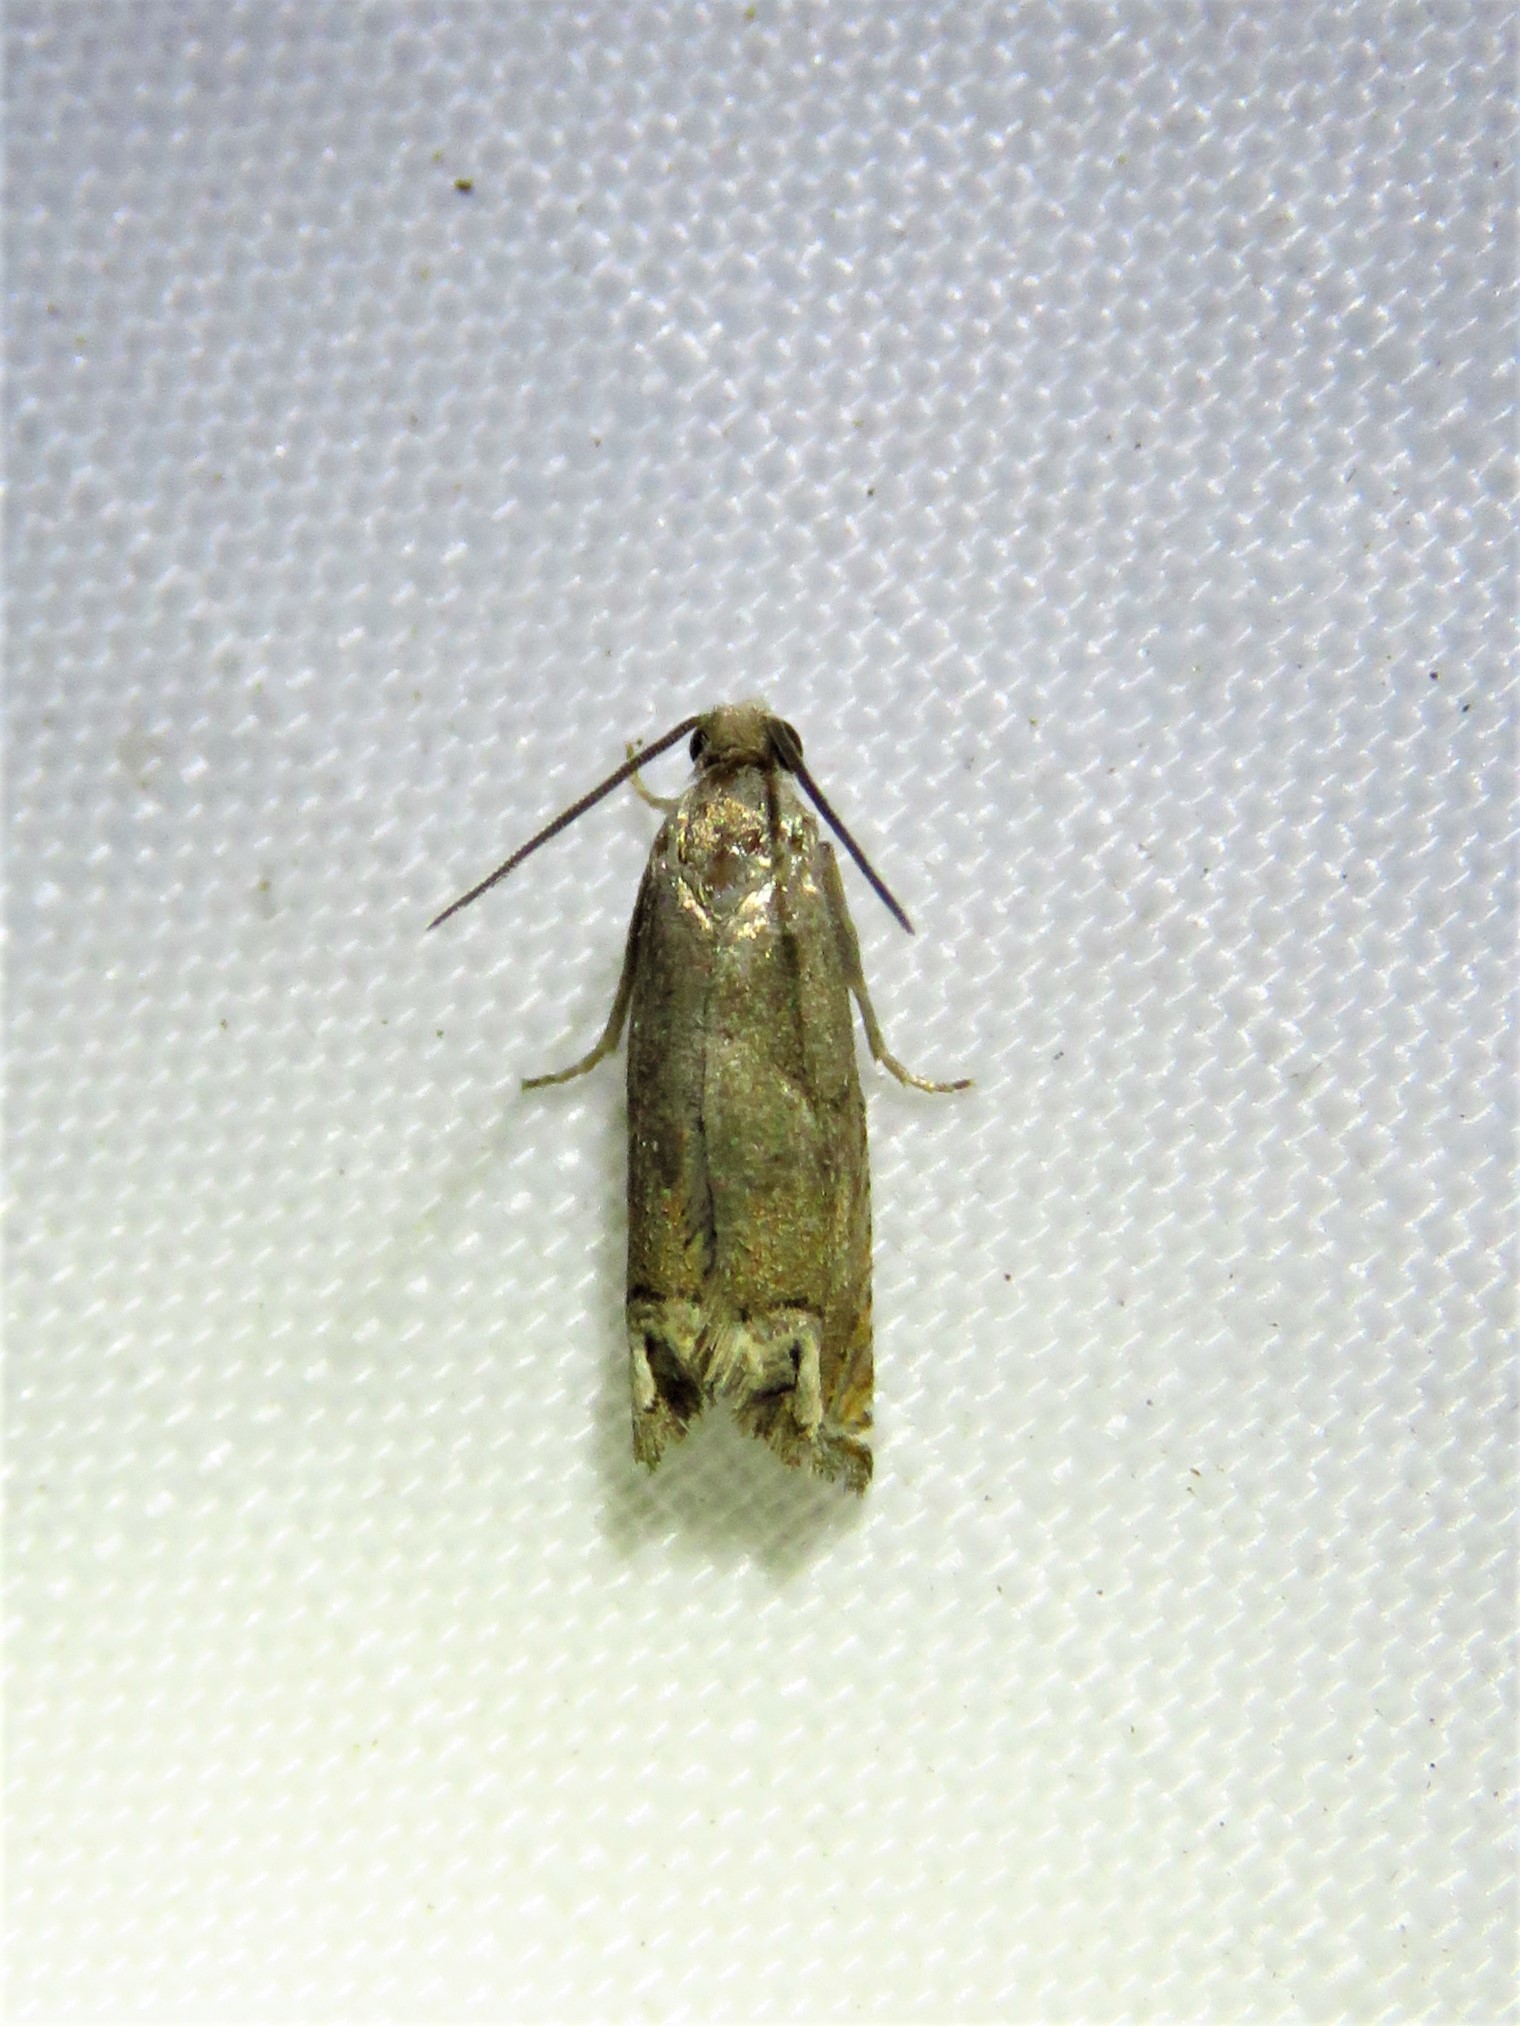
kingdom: Animalia
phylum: Arthropoda
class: Insecta
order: Lepidoptera
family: Tortricidae
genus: Epiblema
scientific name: Epiblema strenuana
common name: Ragweed borer moth
